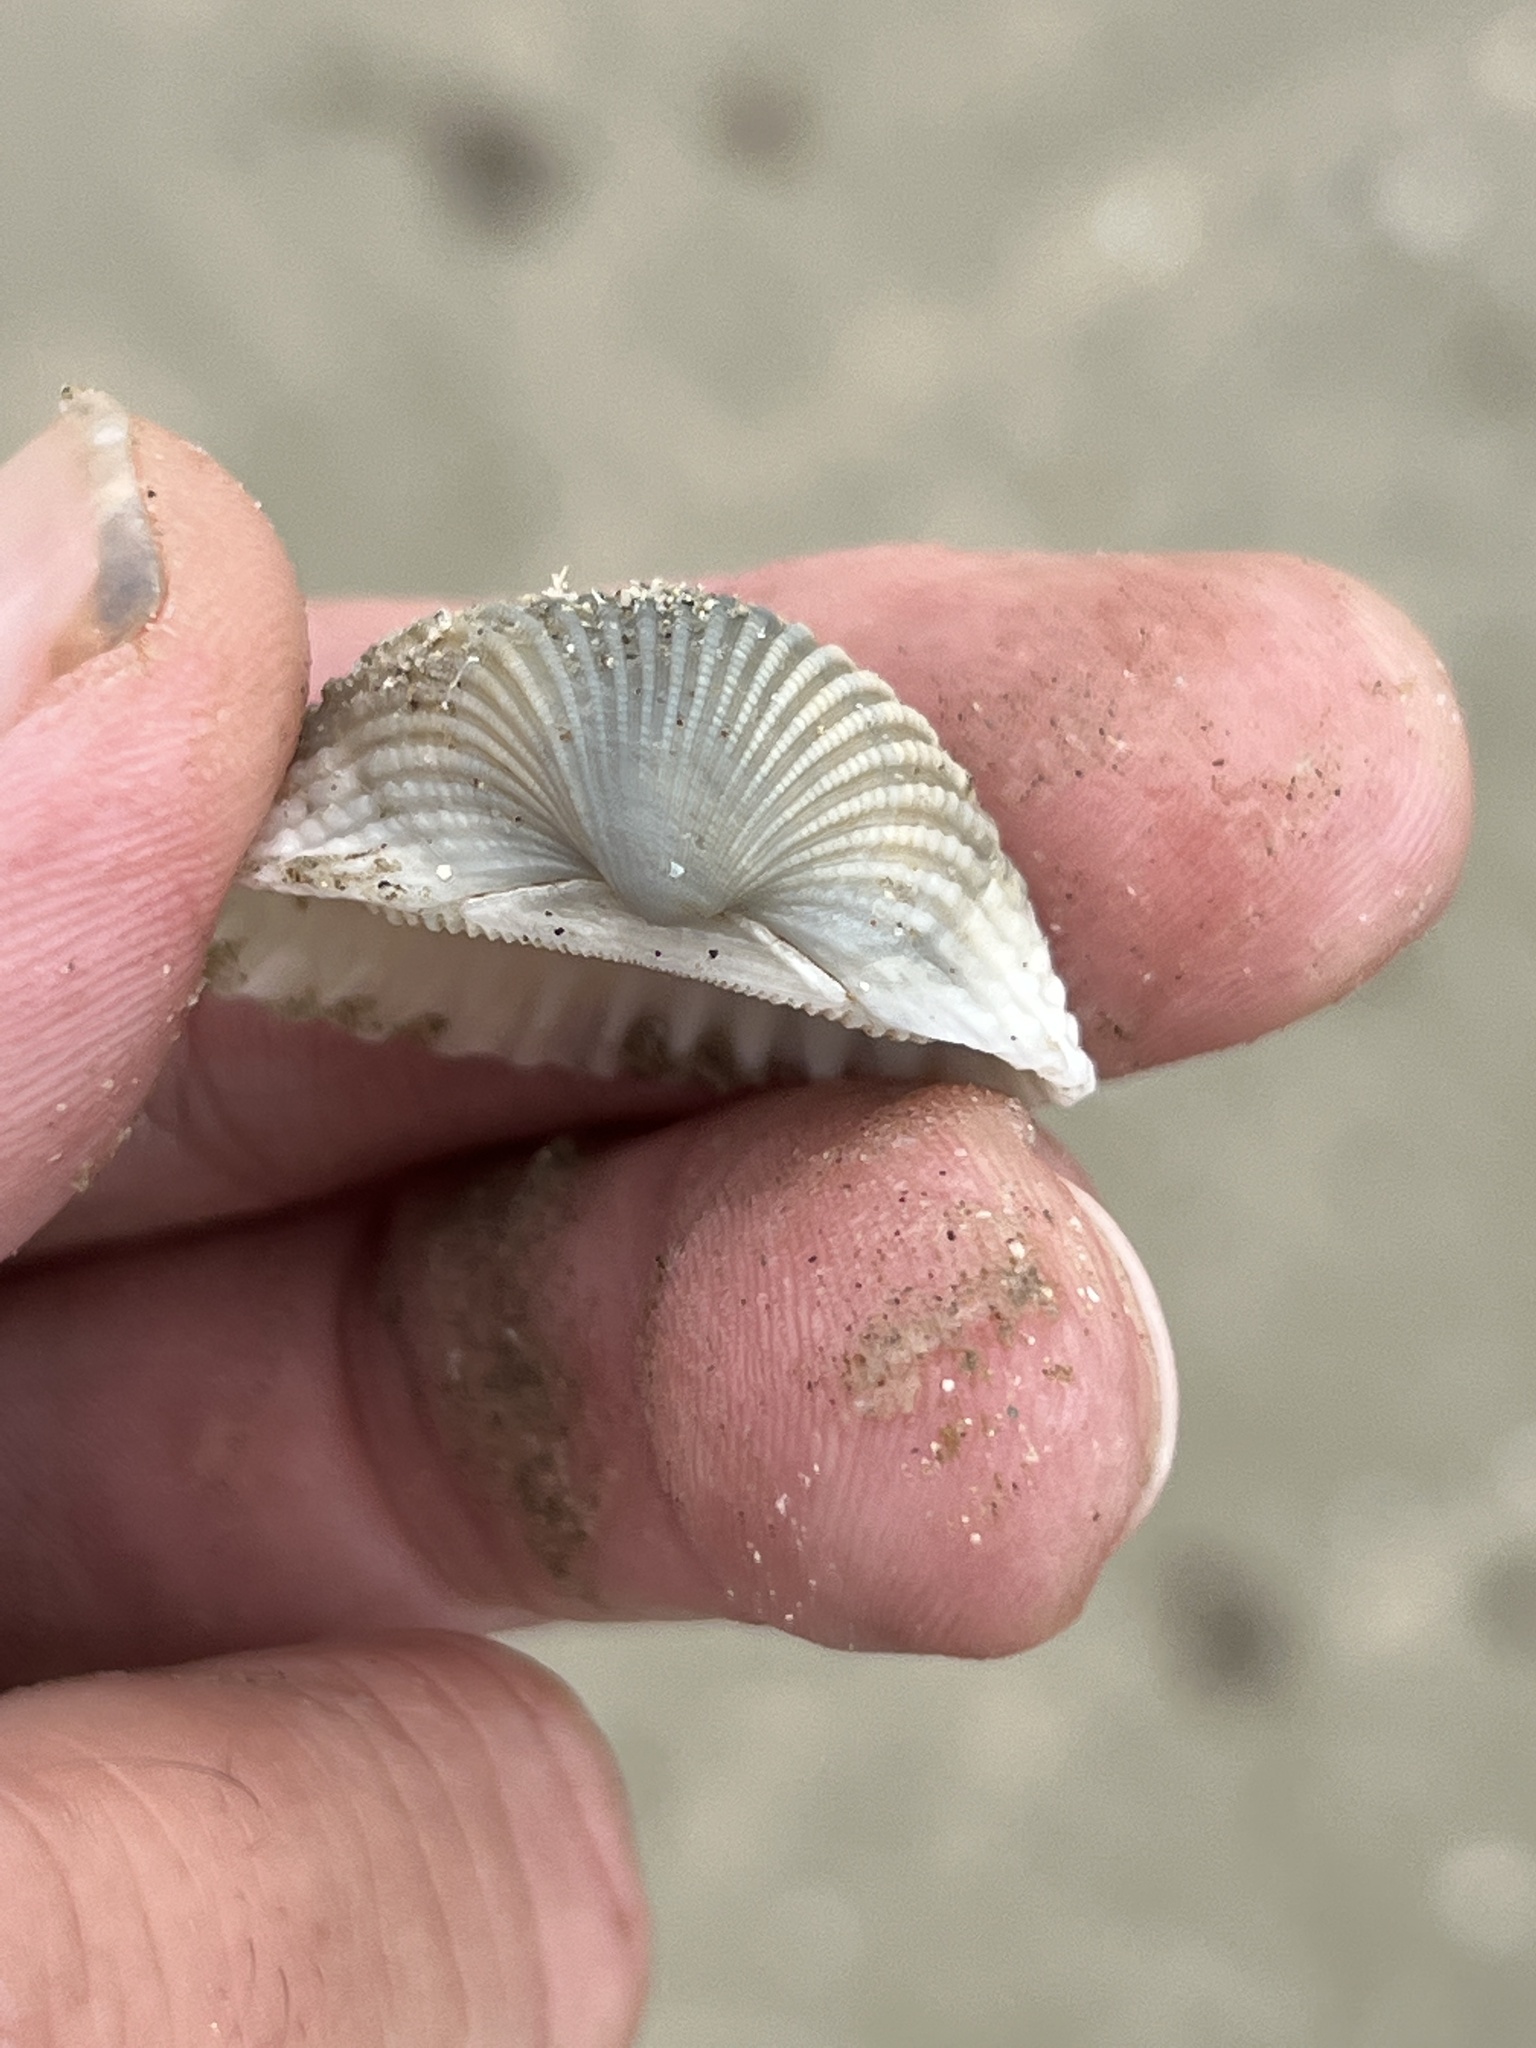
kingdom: Animalia
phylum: Mollusca
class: Bivalvia
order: Arcida
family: Arcidae
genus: Anadara
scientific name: Anadara brasiliana
